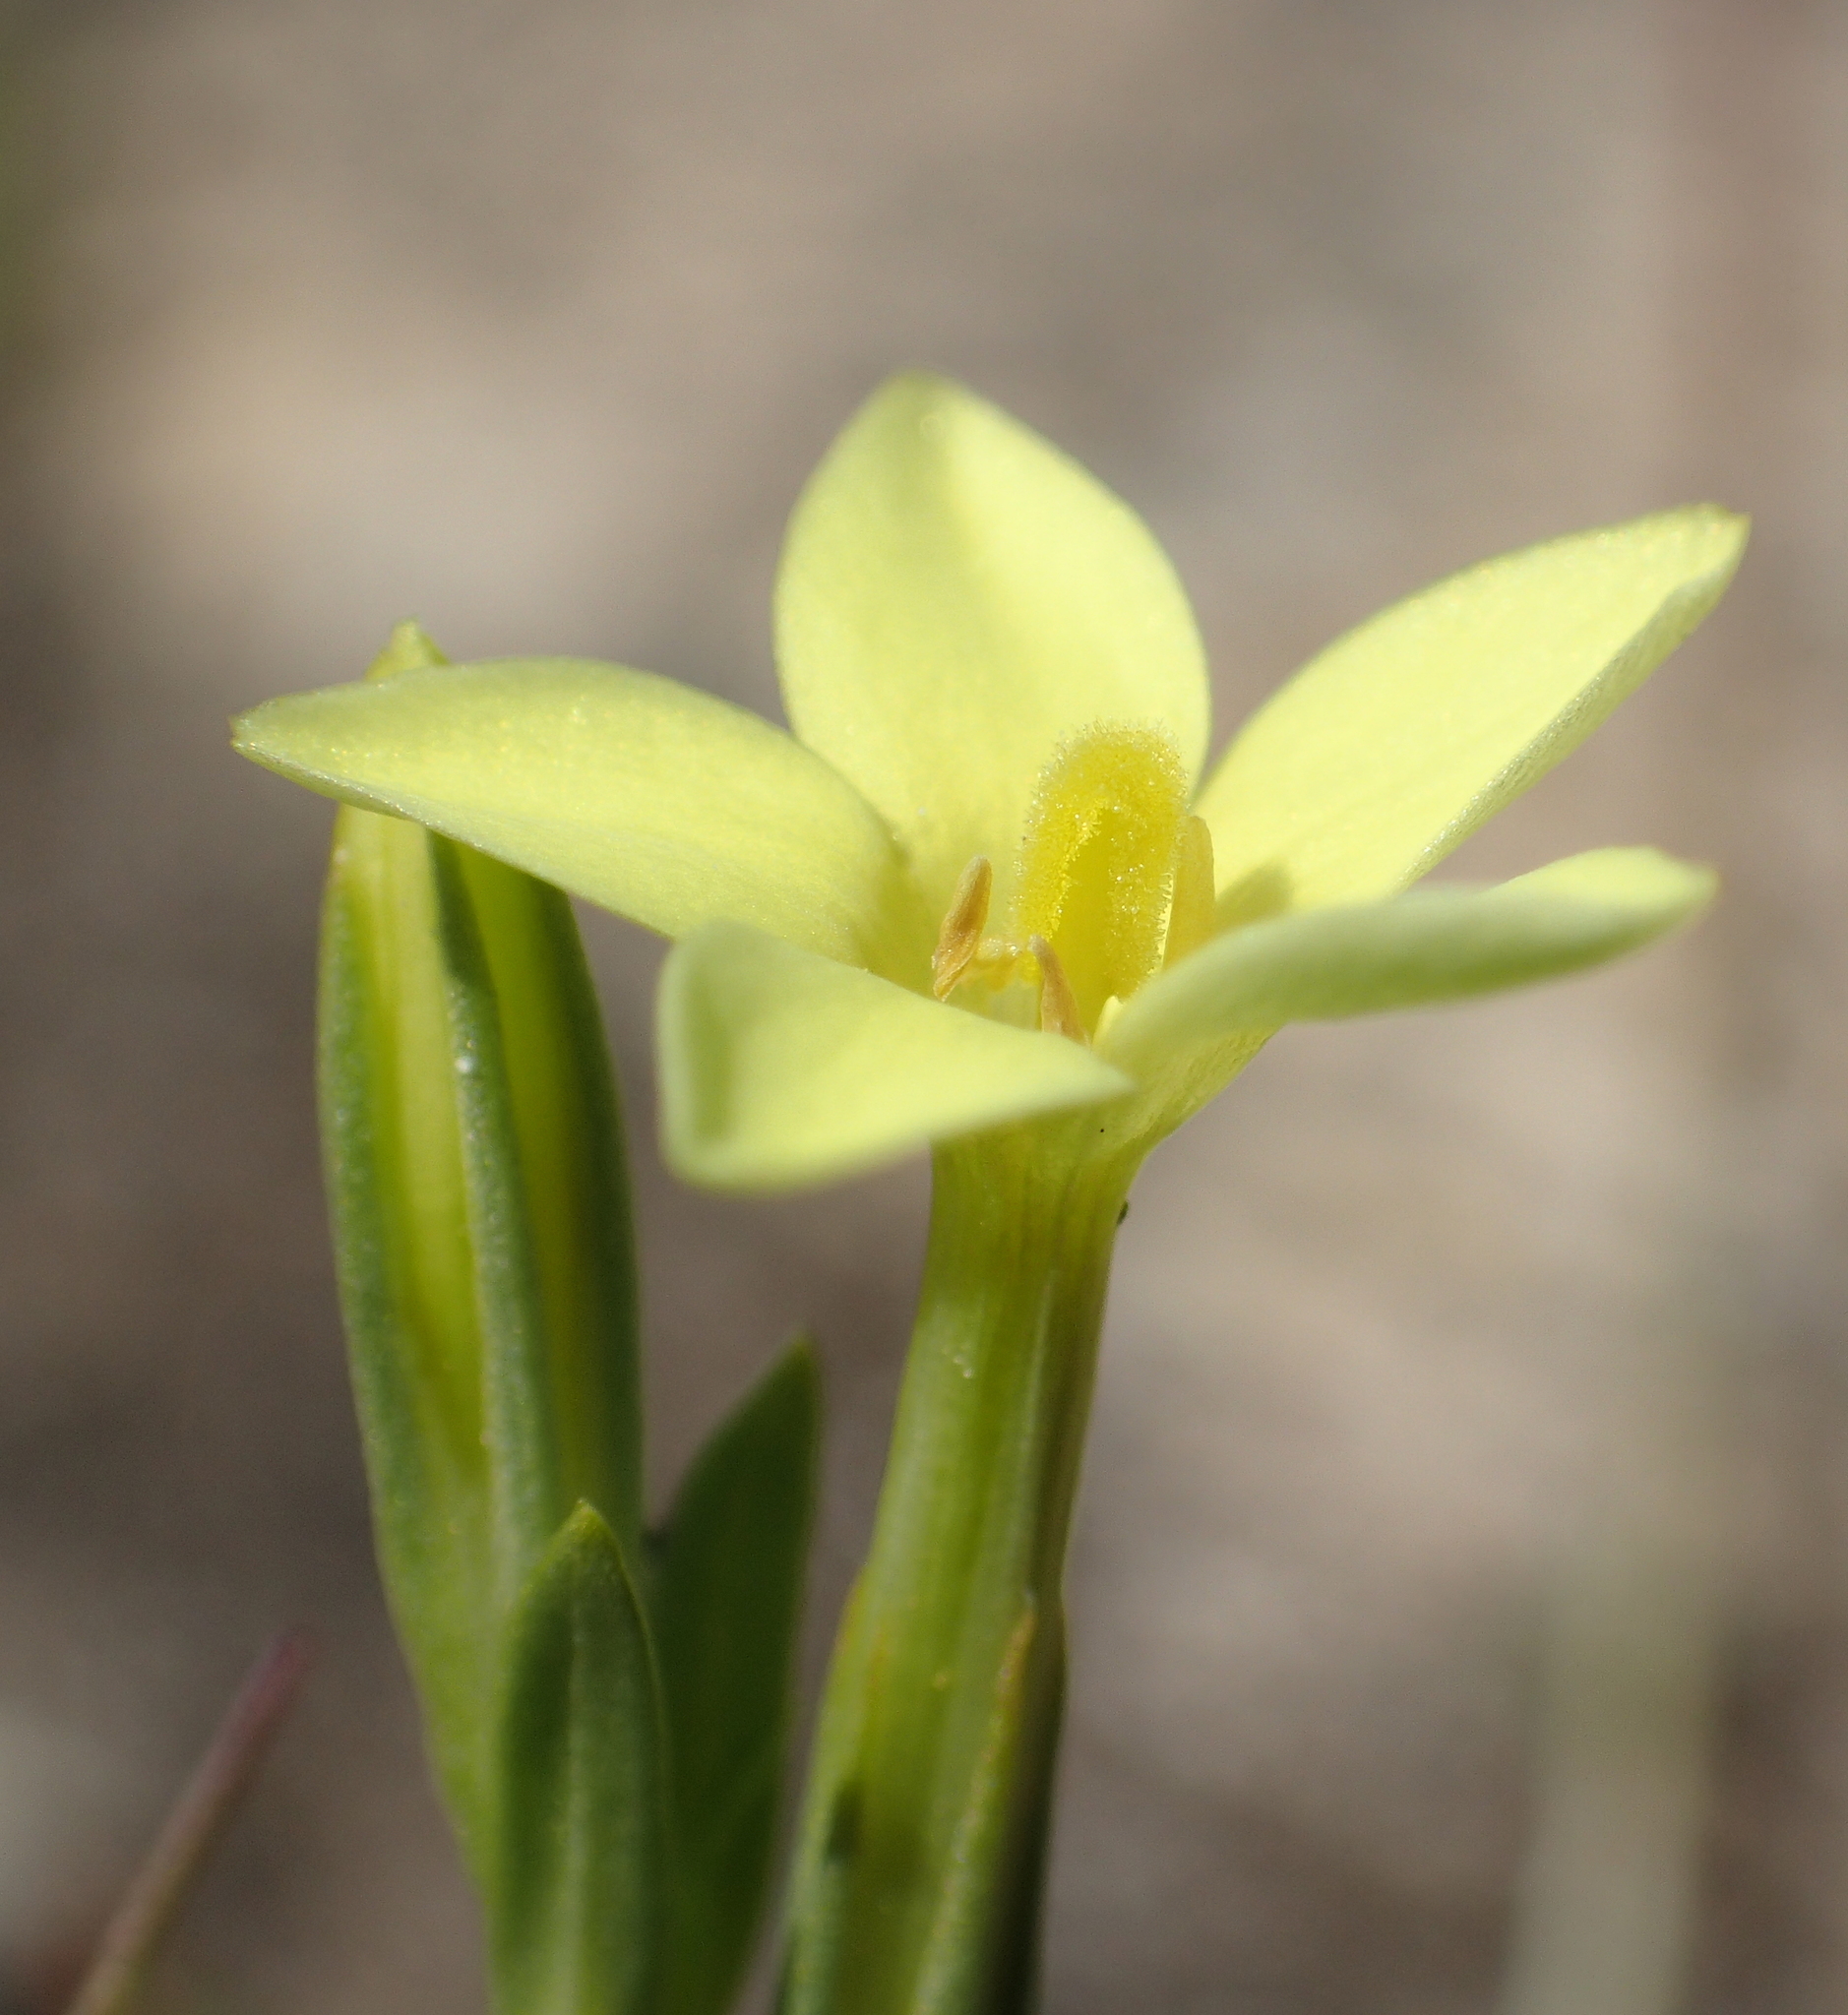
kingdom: Plantae
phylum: Tracheophyta
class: Magnoliopsida
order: Gentianales
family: Gentianaceae
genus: Centaurium
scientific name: Centaurium maritimum
